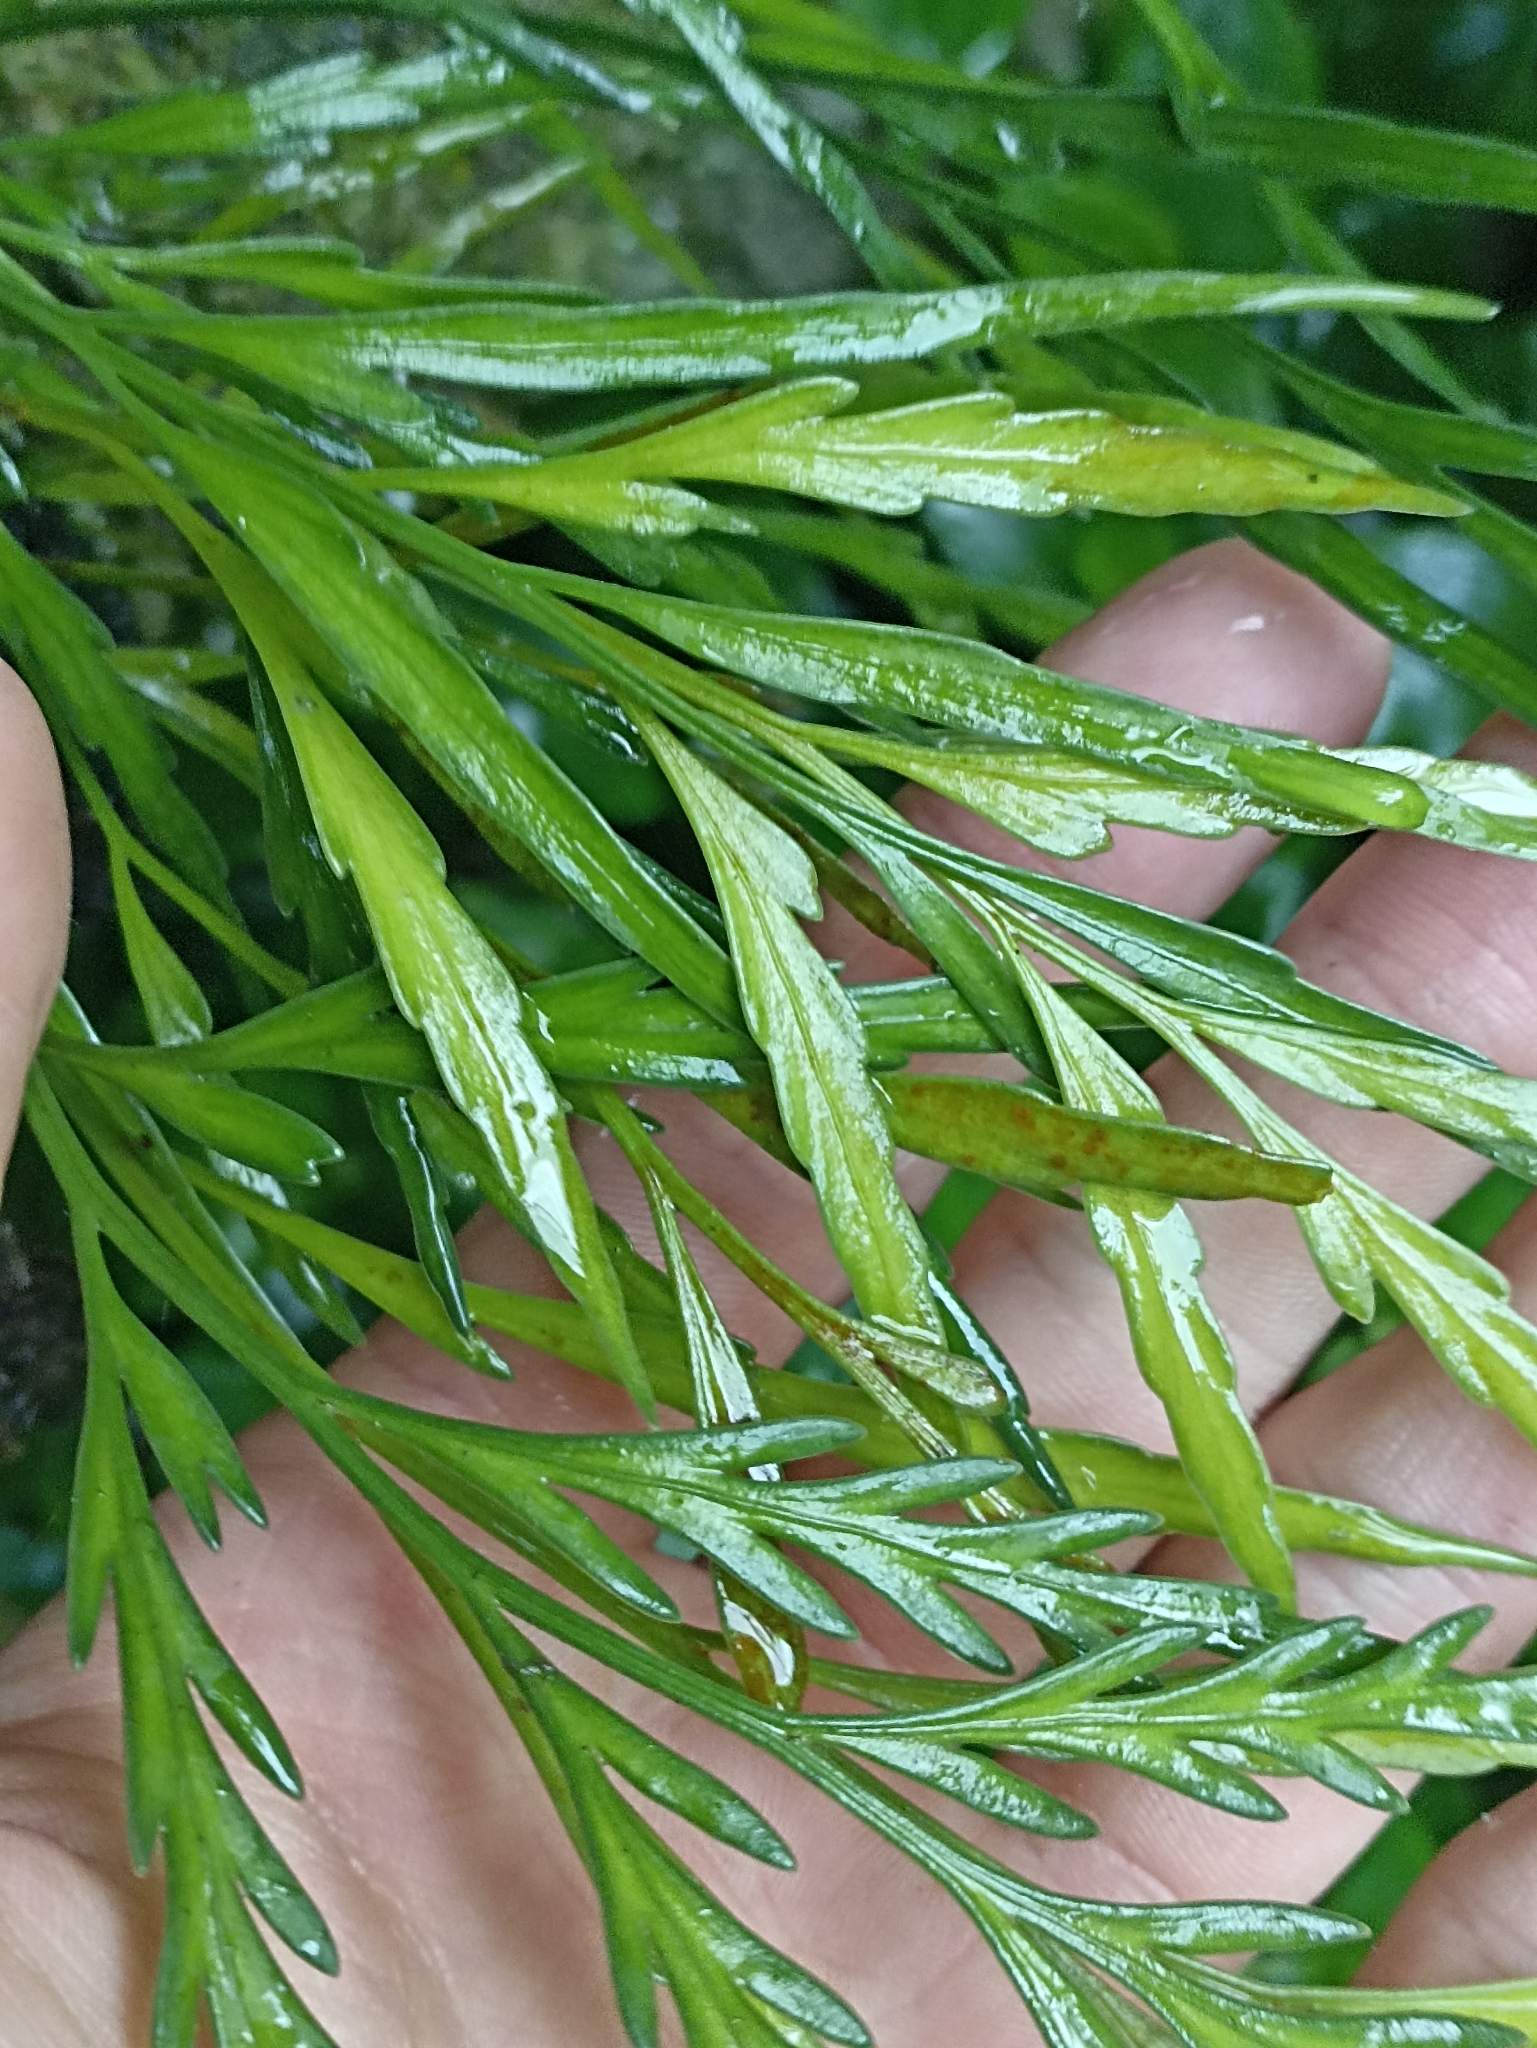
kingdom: Plantae
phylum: Tracheophyta
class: Polypodiopsida
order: Polypodiales
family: Aspleniaceae
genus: Asplenium
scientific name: Asplenium flaccidum
